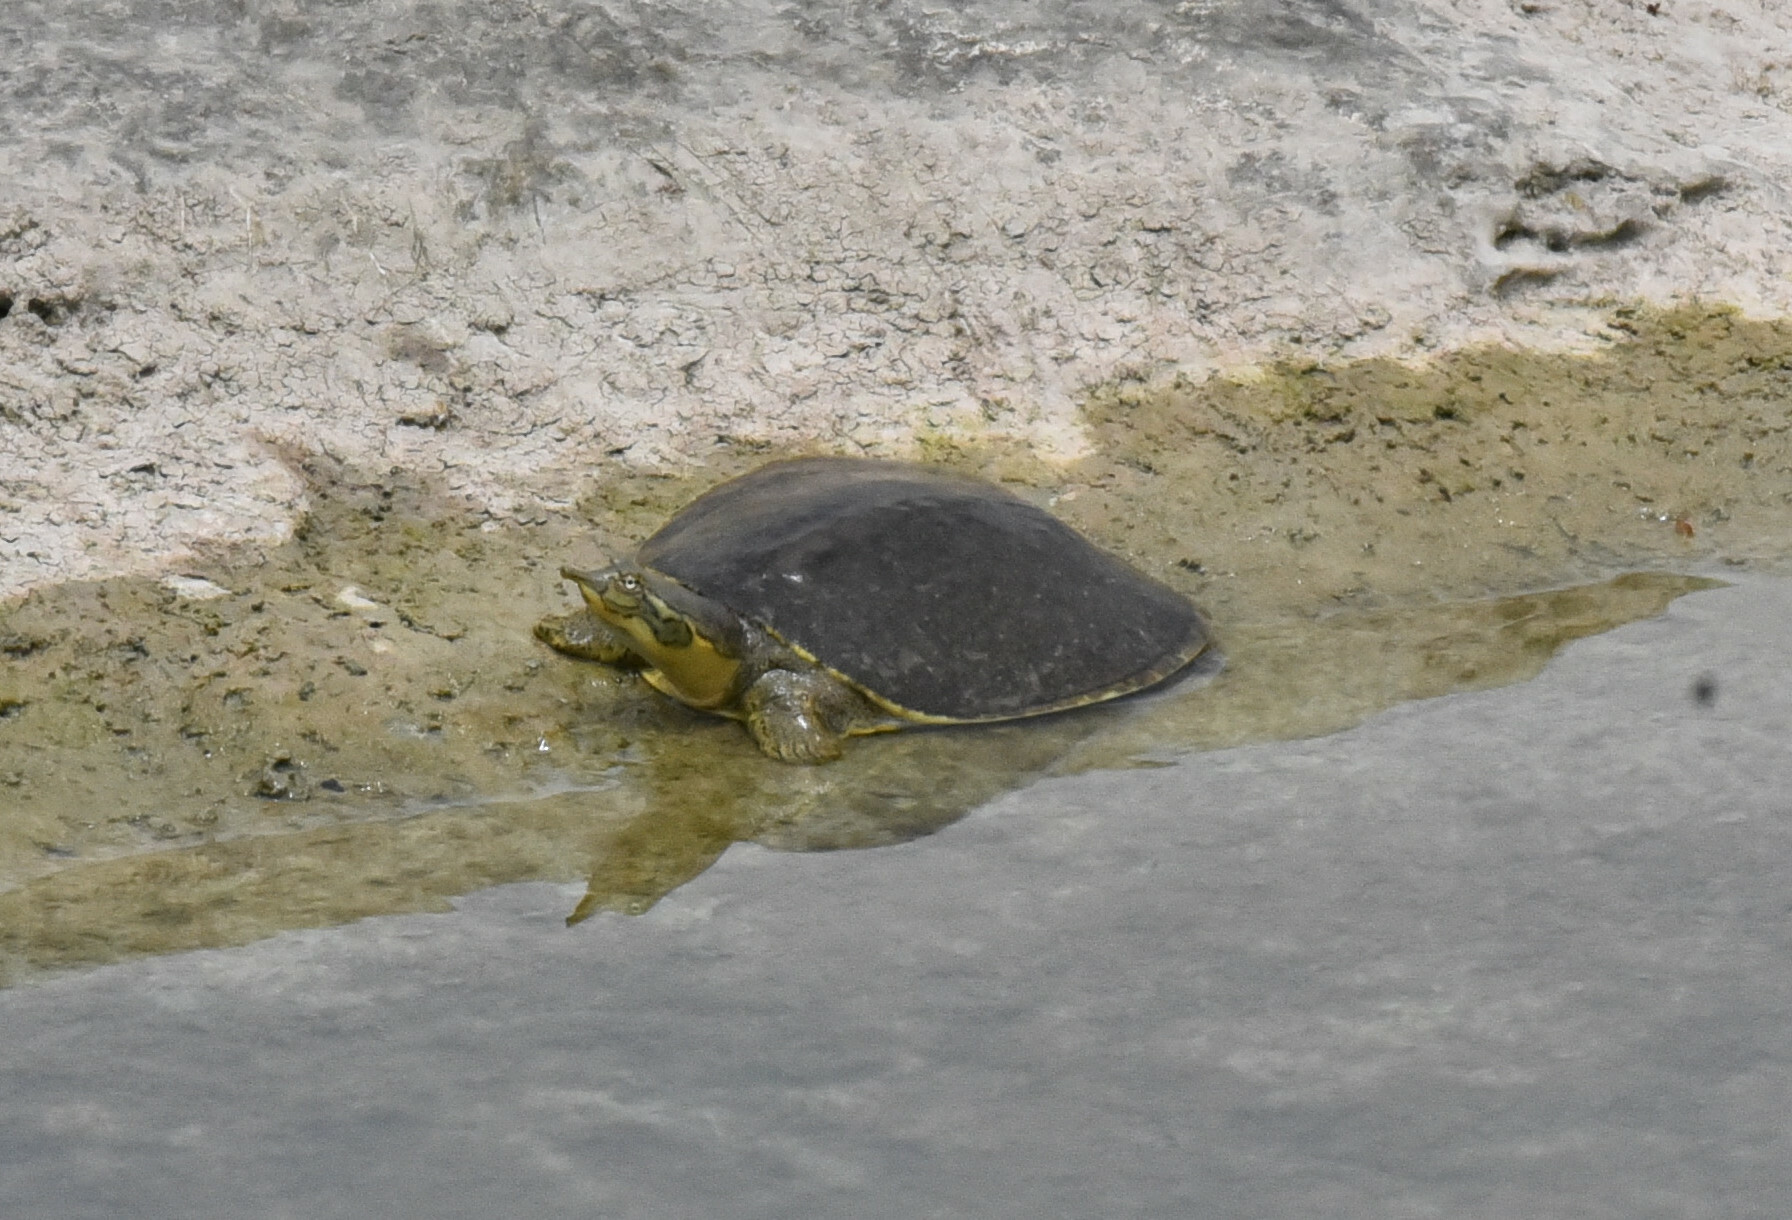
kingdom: Animalia
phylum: Chordata
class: Testudines
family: Trionychidae
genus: Apalone
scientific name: Apalone spinifera
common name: Spiny softshell turtle
